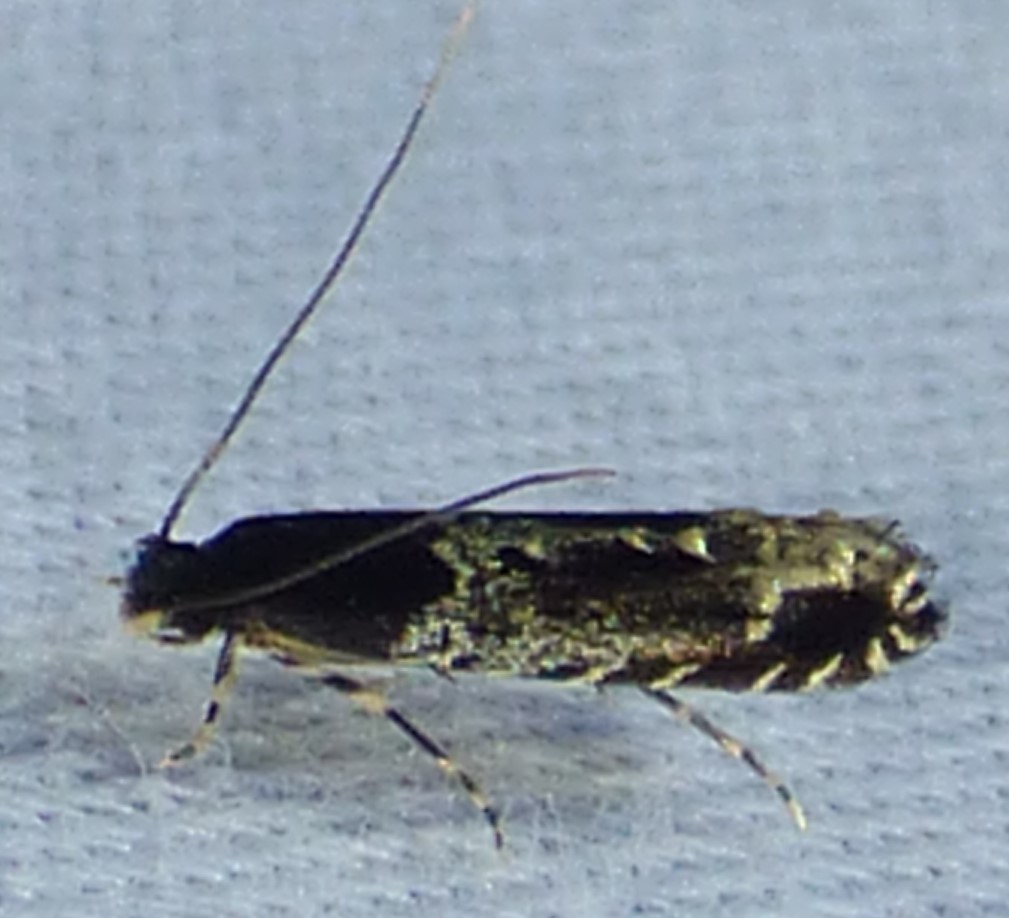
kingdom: Animalia
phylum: Arthropoda
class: Insecta
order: Lepidoptera
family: Meessiidae
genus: Homosetia
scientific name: Homosetia argentinotella
